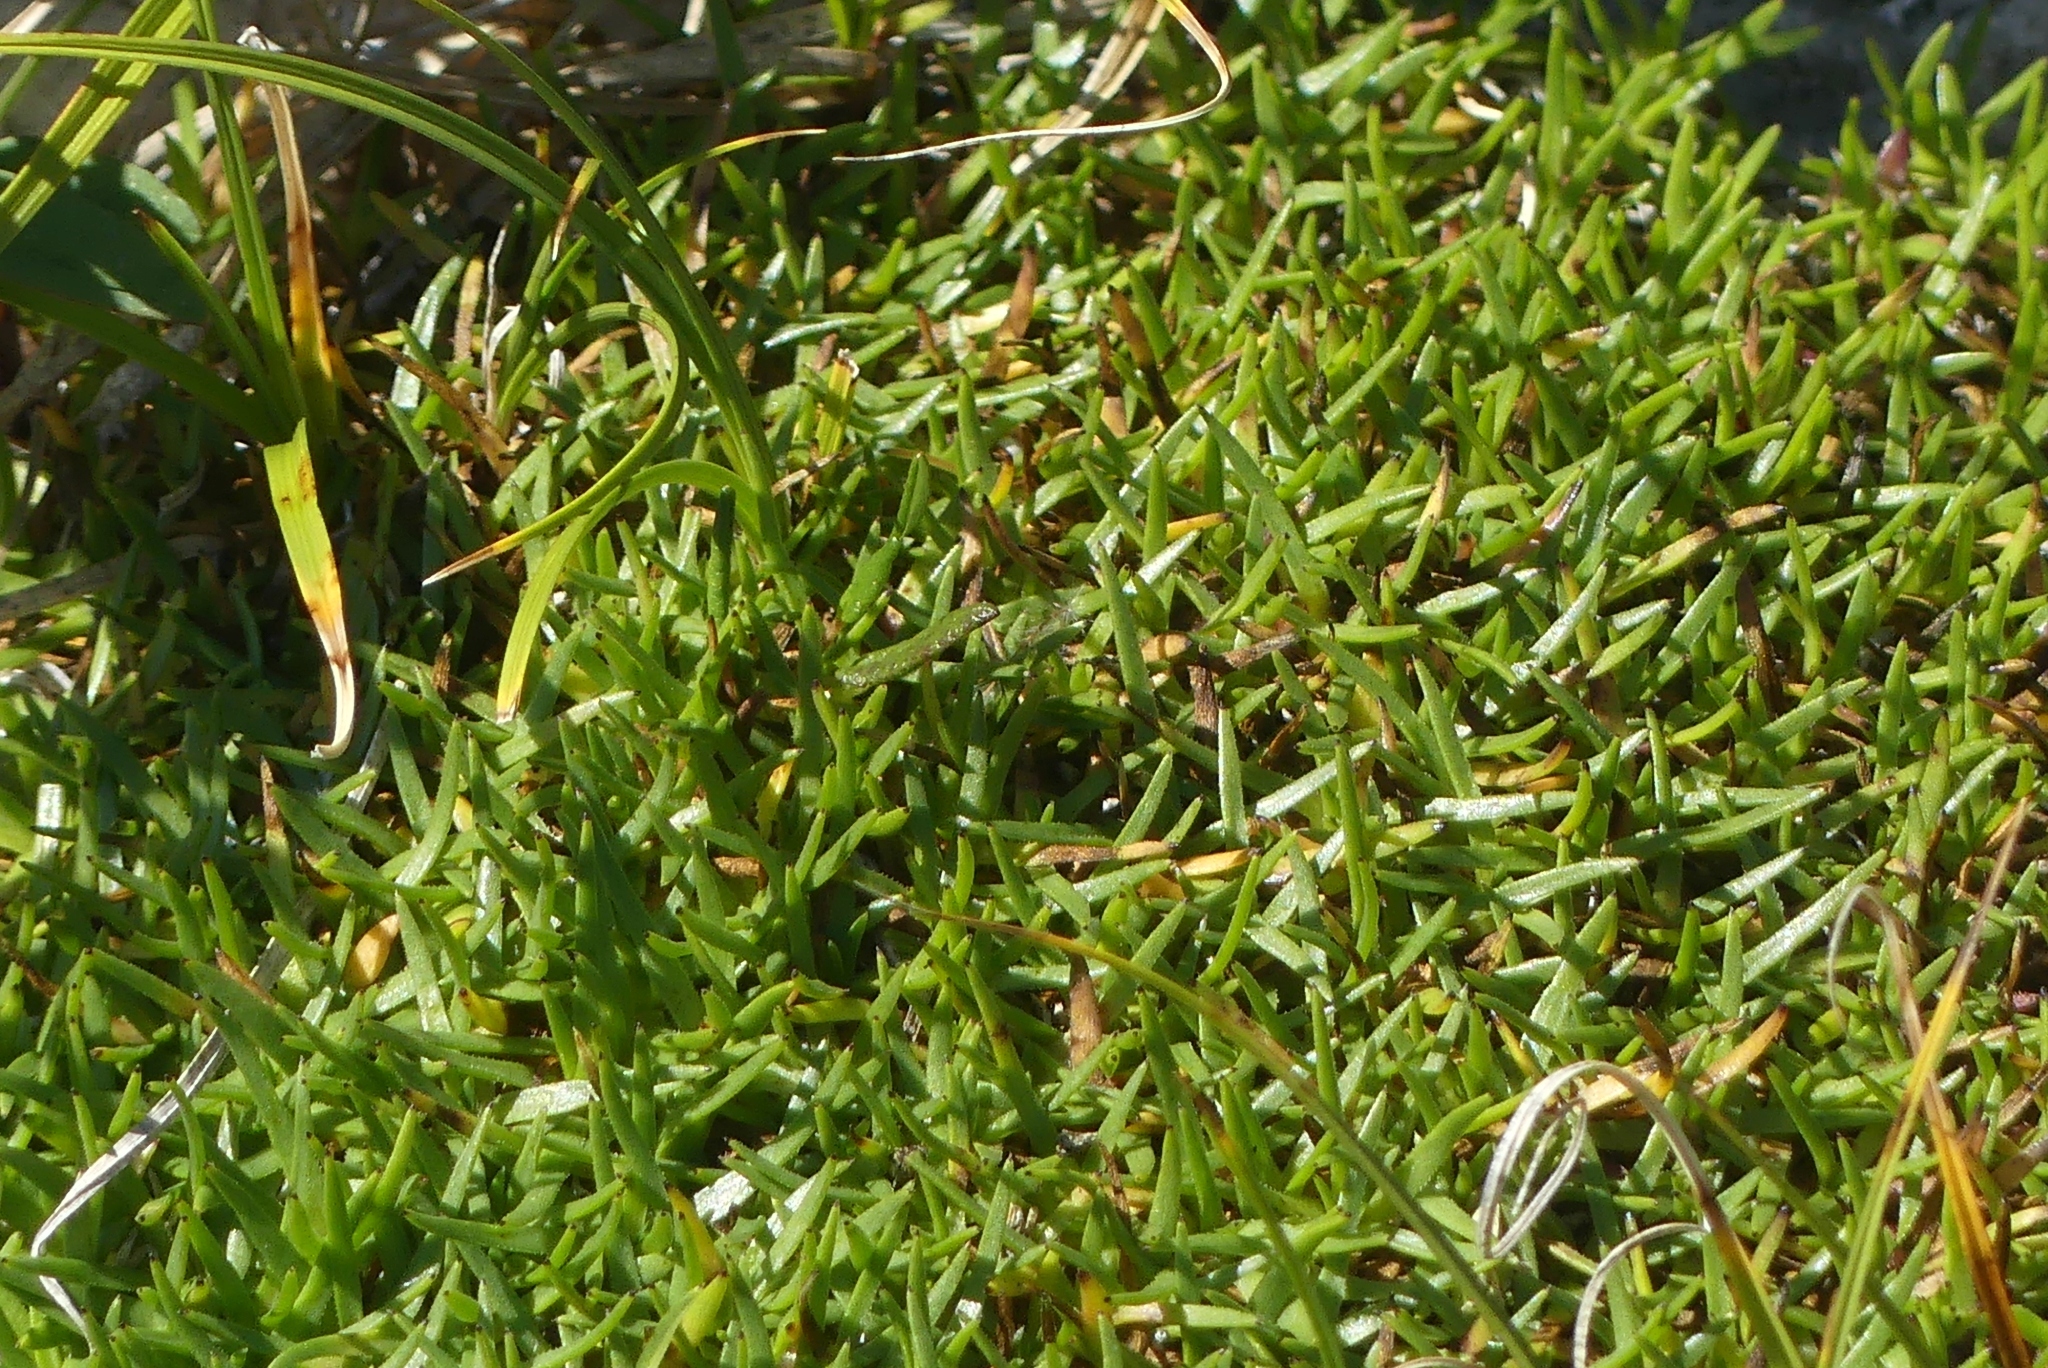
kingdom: Plantae
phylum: Tracheophyta
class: Magnoliopsida
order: Caryophyllales
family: Caryophyllaceae
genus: Silene
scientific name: Silene acaulis
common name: Moss campion
